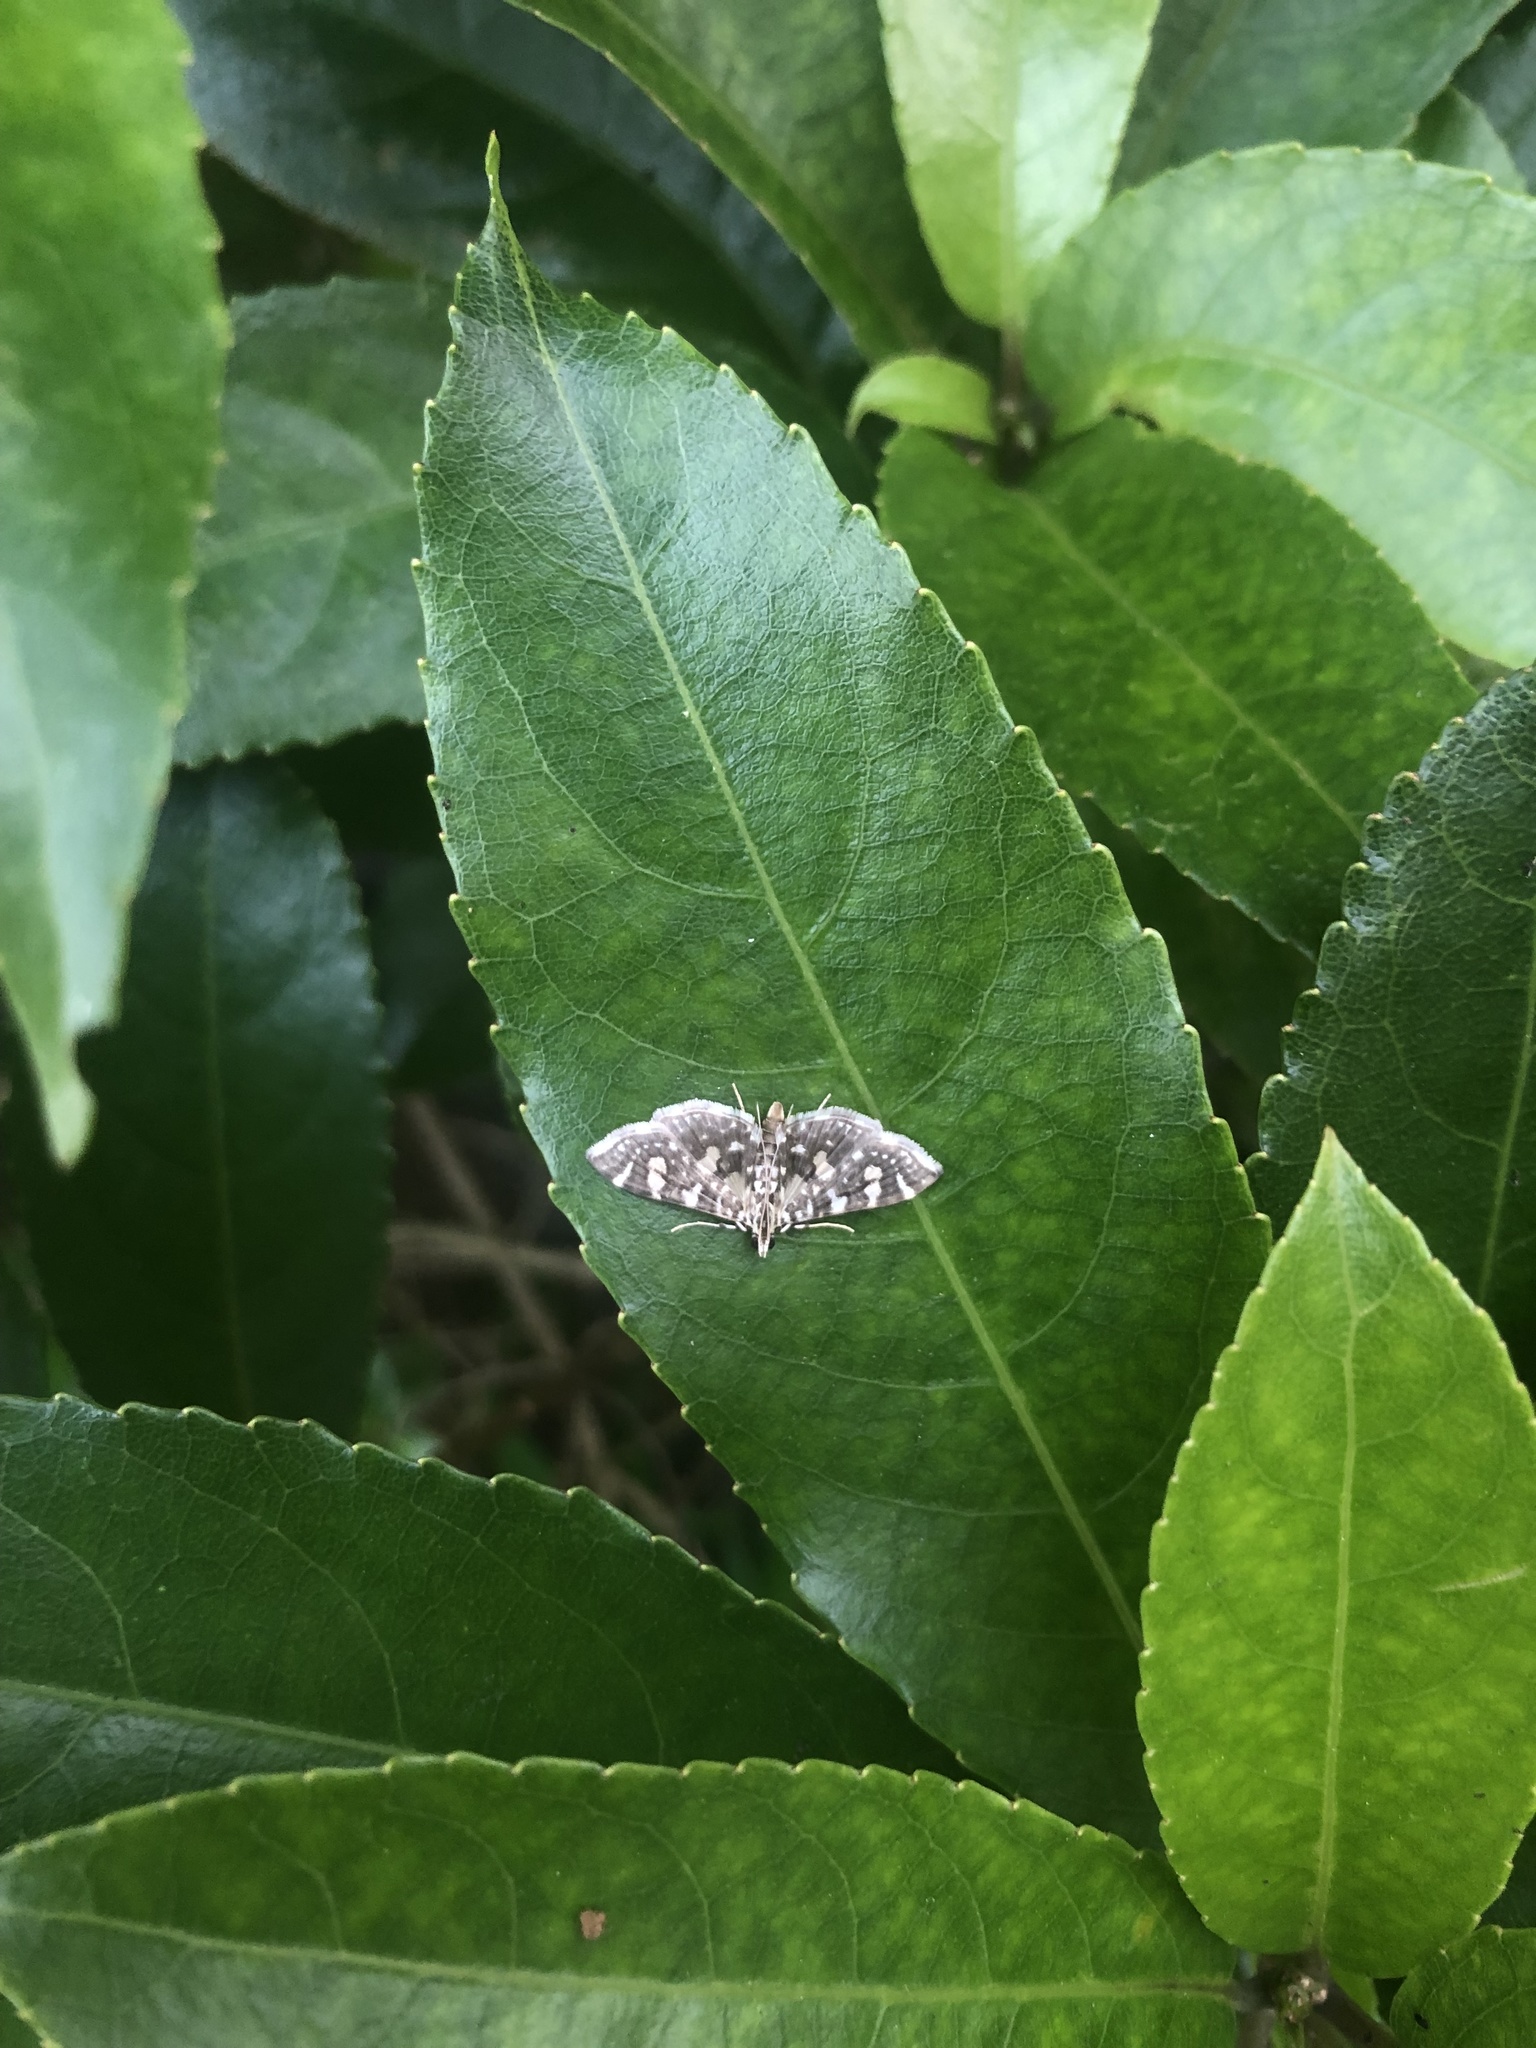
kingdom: Animalia
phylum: Arthropoda
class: Insecta
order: Lepidoptera
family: Crambidae
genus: Glyphodes
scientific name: Glyphodes onychinalis
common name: Swan plant moth
